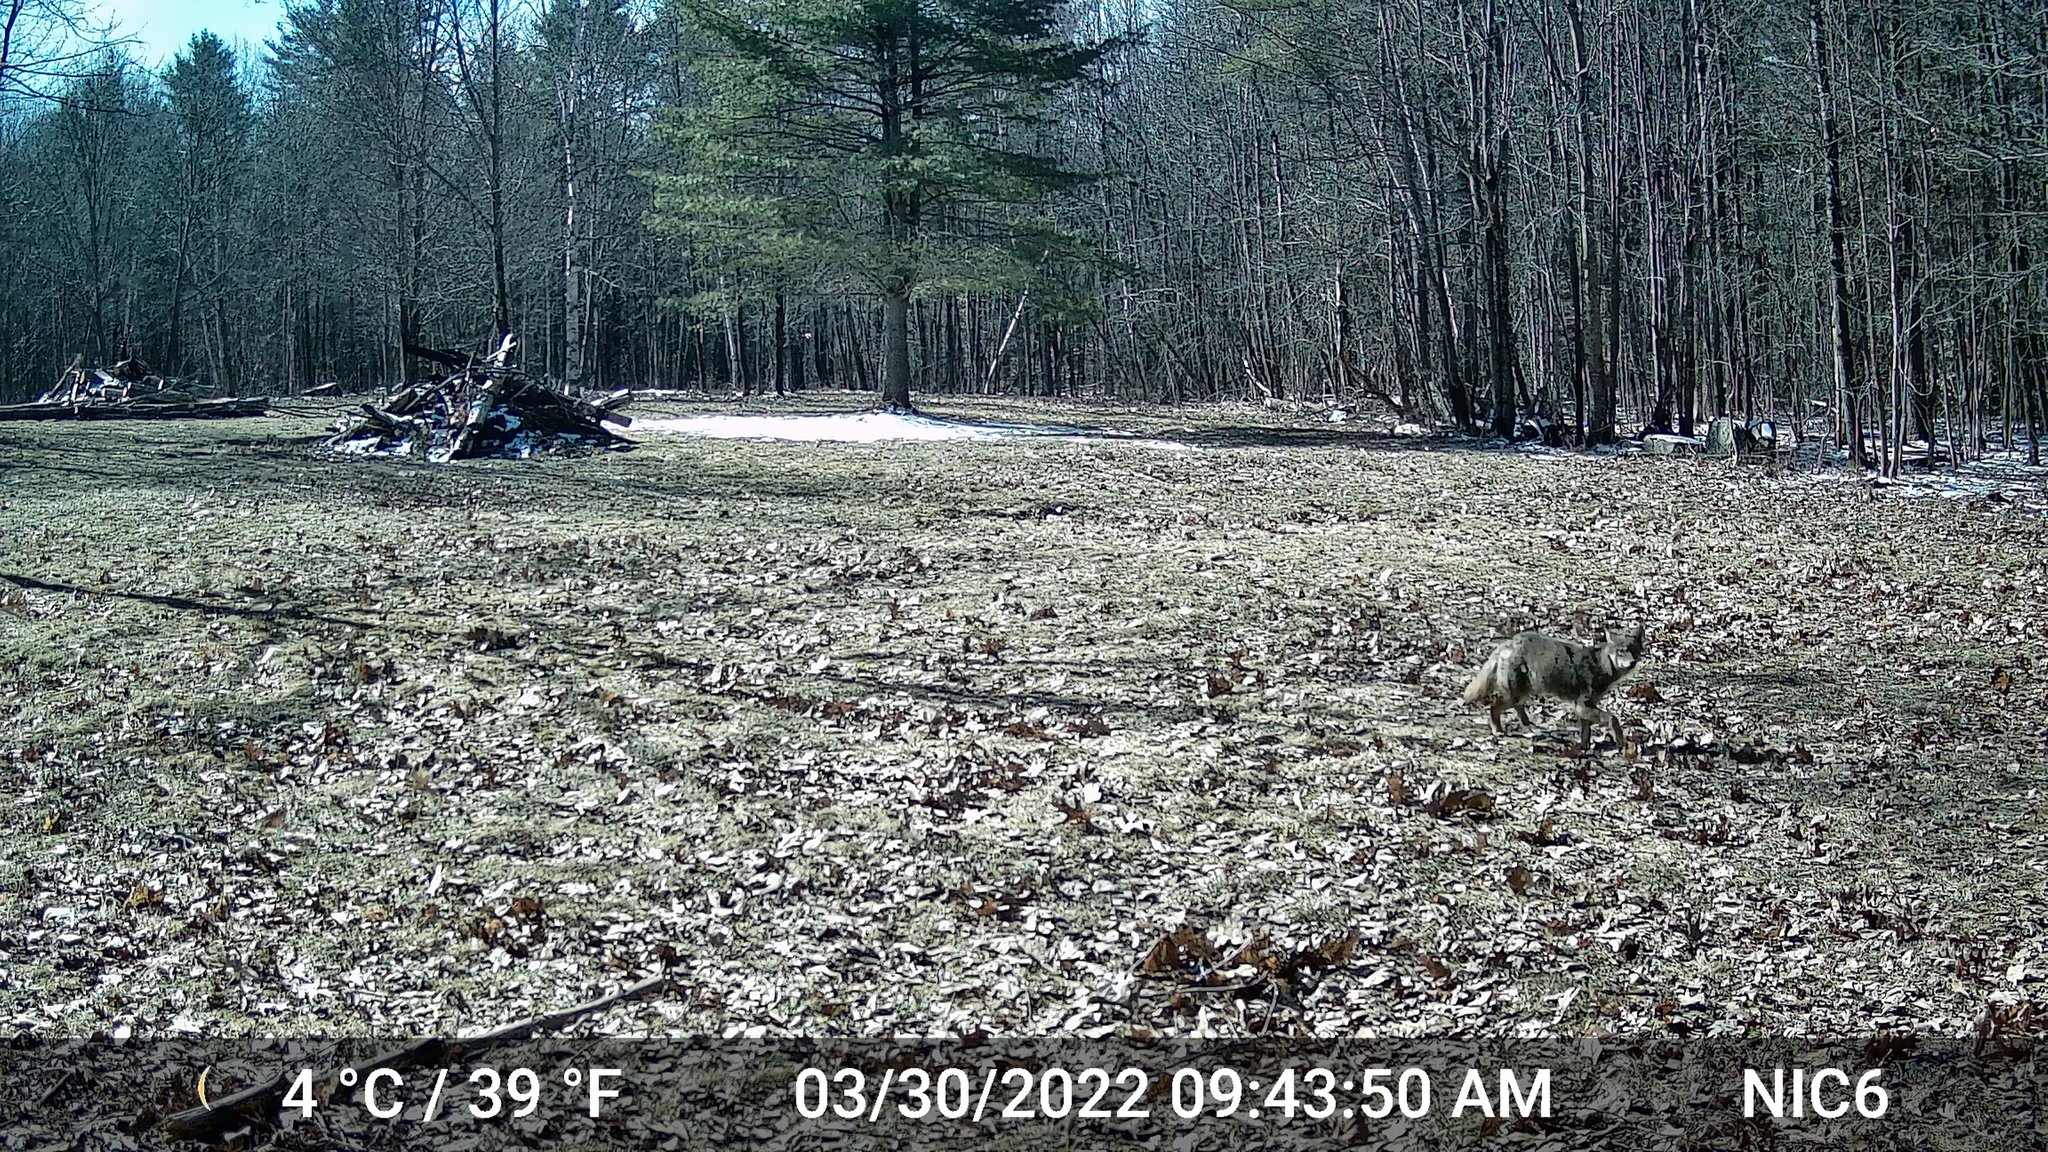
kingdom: Animalia
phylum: Chordata
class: Mammalia
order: Carnivora
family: Canidae
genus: Canis
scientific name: Canis latrans
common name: Coyote
